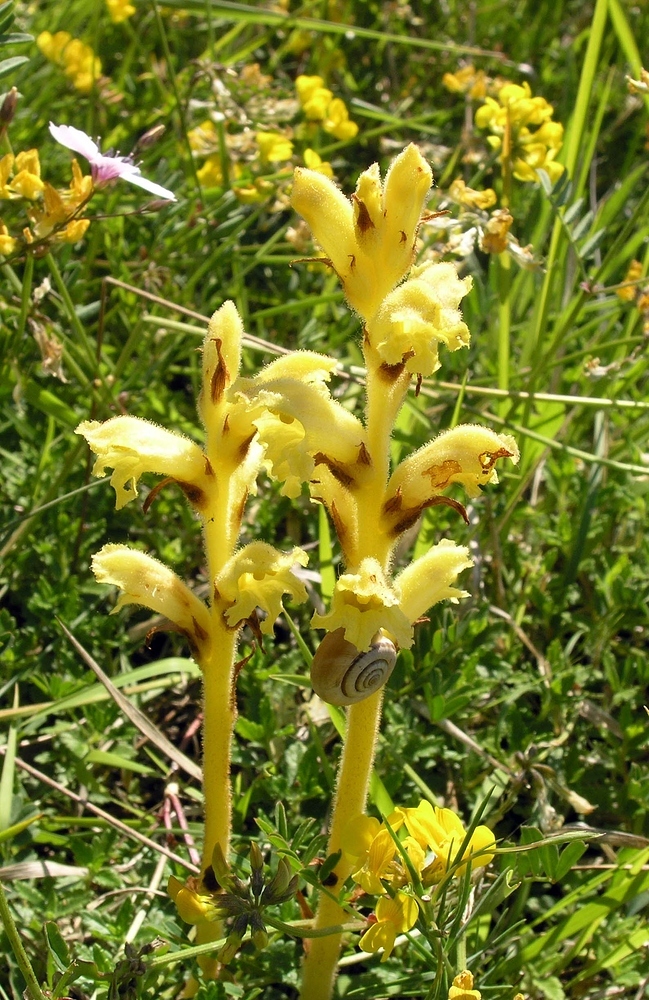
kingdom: Plantae
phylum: Tracheophyta
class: Magnoliopsida
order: Lamiales
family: Orobanchaceae
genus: Orobanche
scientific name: Orobanche teucrii
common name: Germander broomrape
